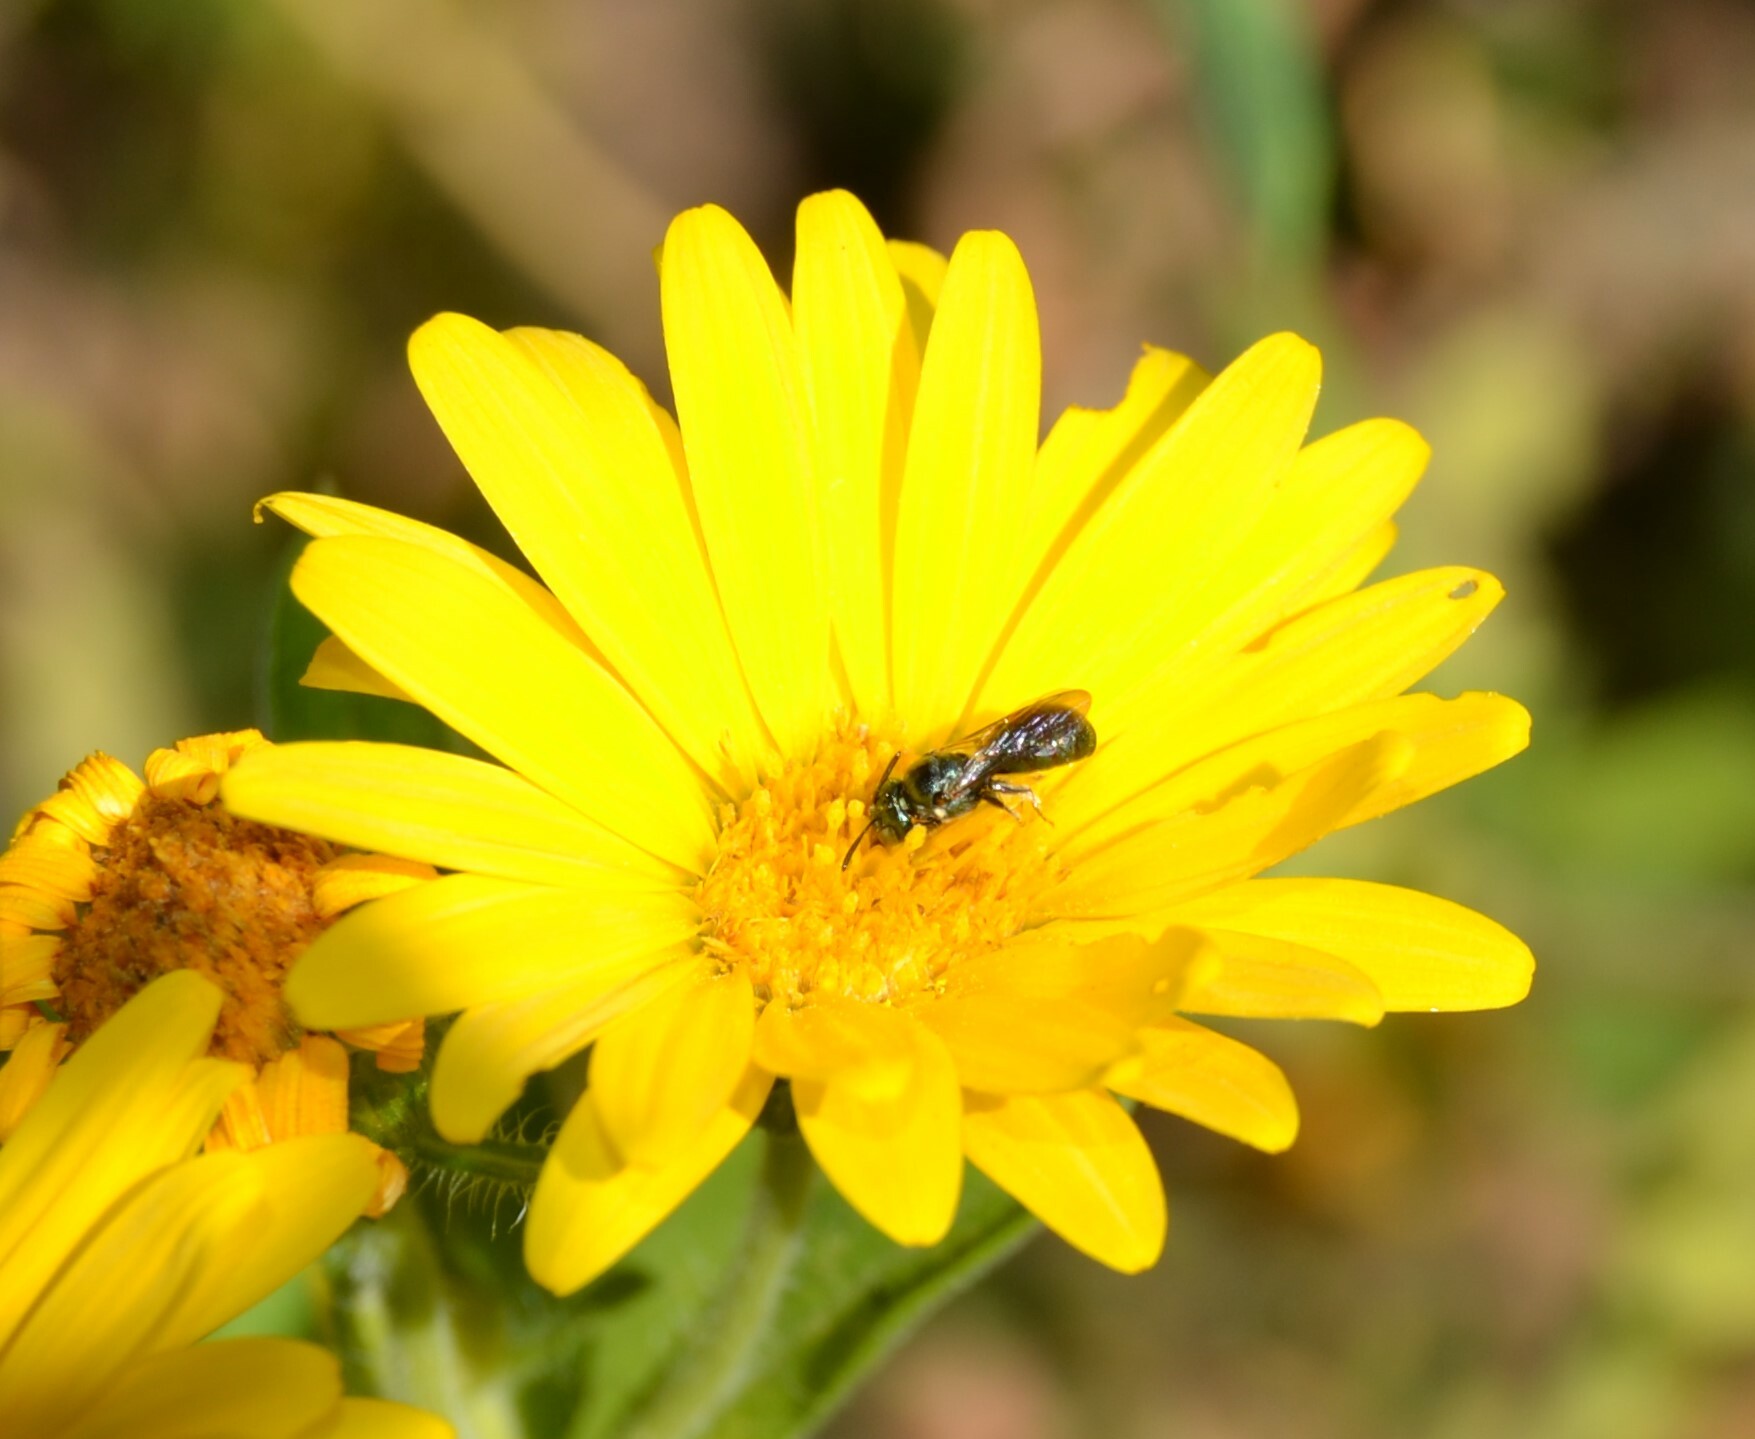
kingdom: Animalia
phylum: Arthropoda
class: Insecta
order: Hymenoptera
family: Apidae
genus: Ceratina
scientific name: Ceratina strenua
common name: Nimble carpenter bee
